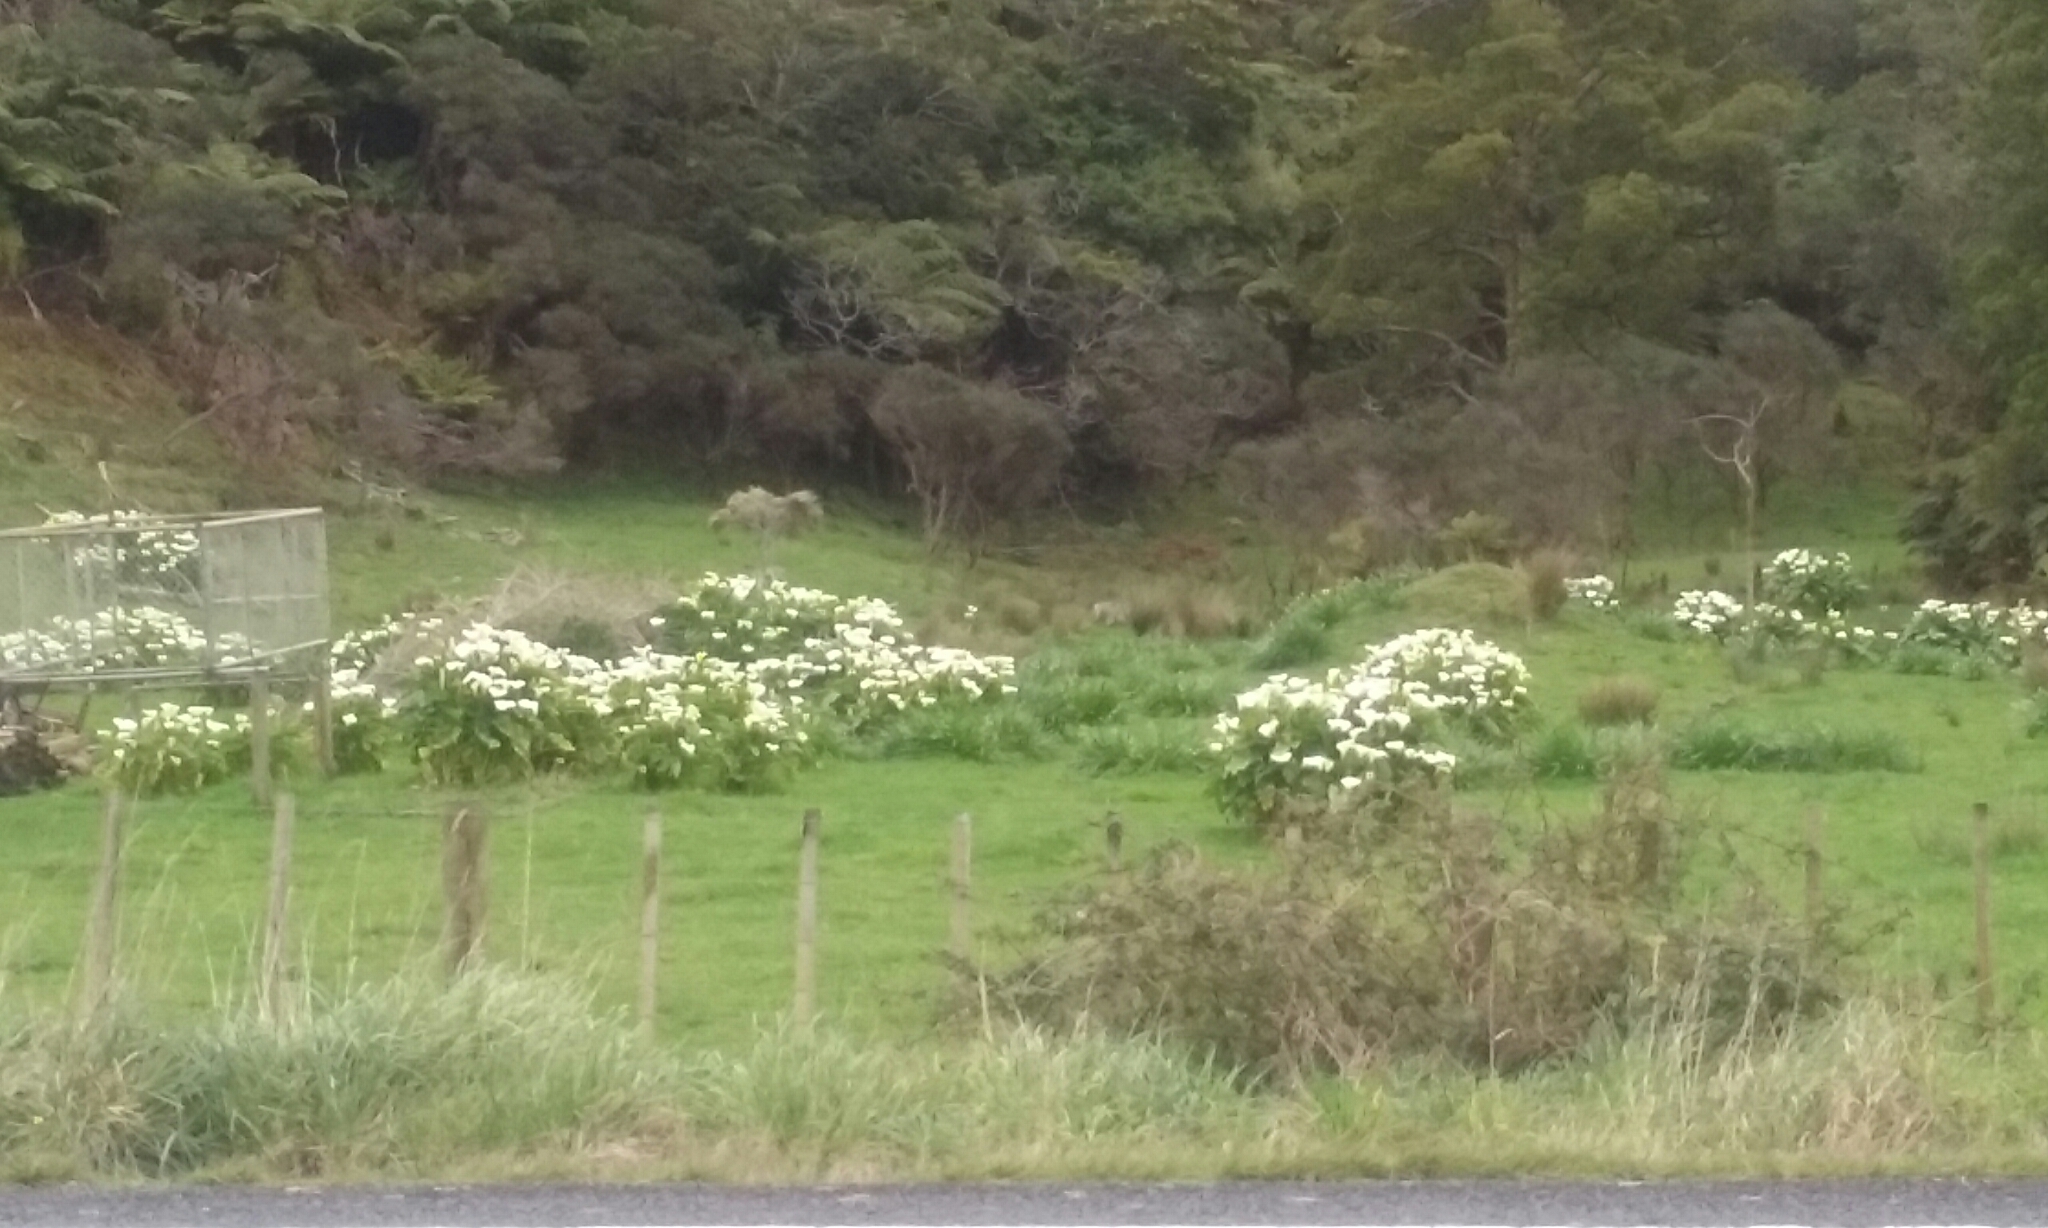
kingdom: Plantae
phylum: Tracheophyta
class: Liliopsida
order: Alismatales
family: Araceae
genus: Zantedeschia
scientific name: Zantedeschia aethiopica
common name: Altar-lily
